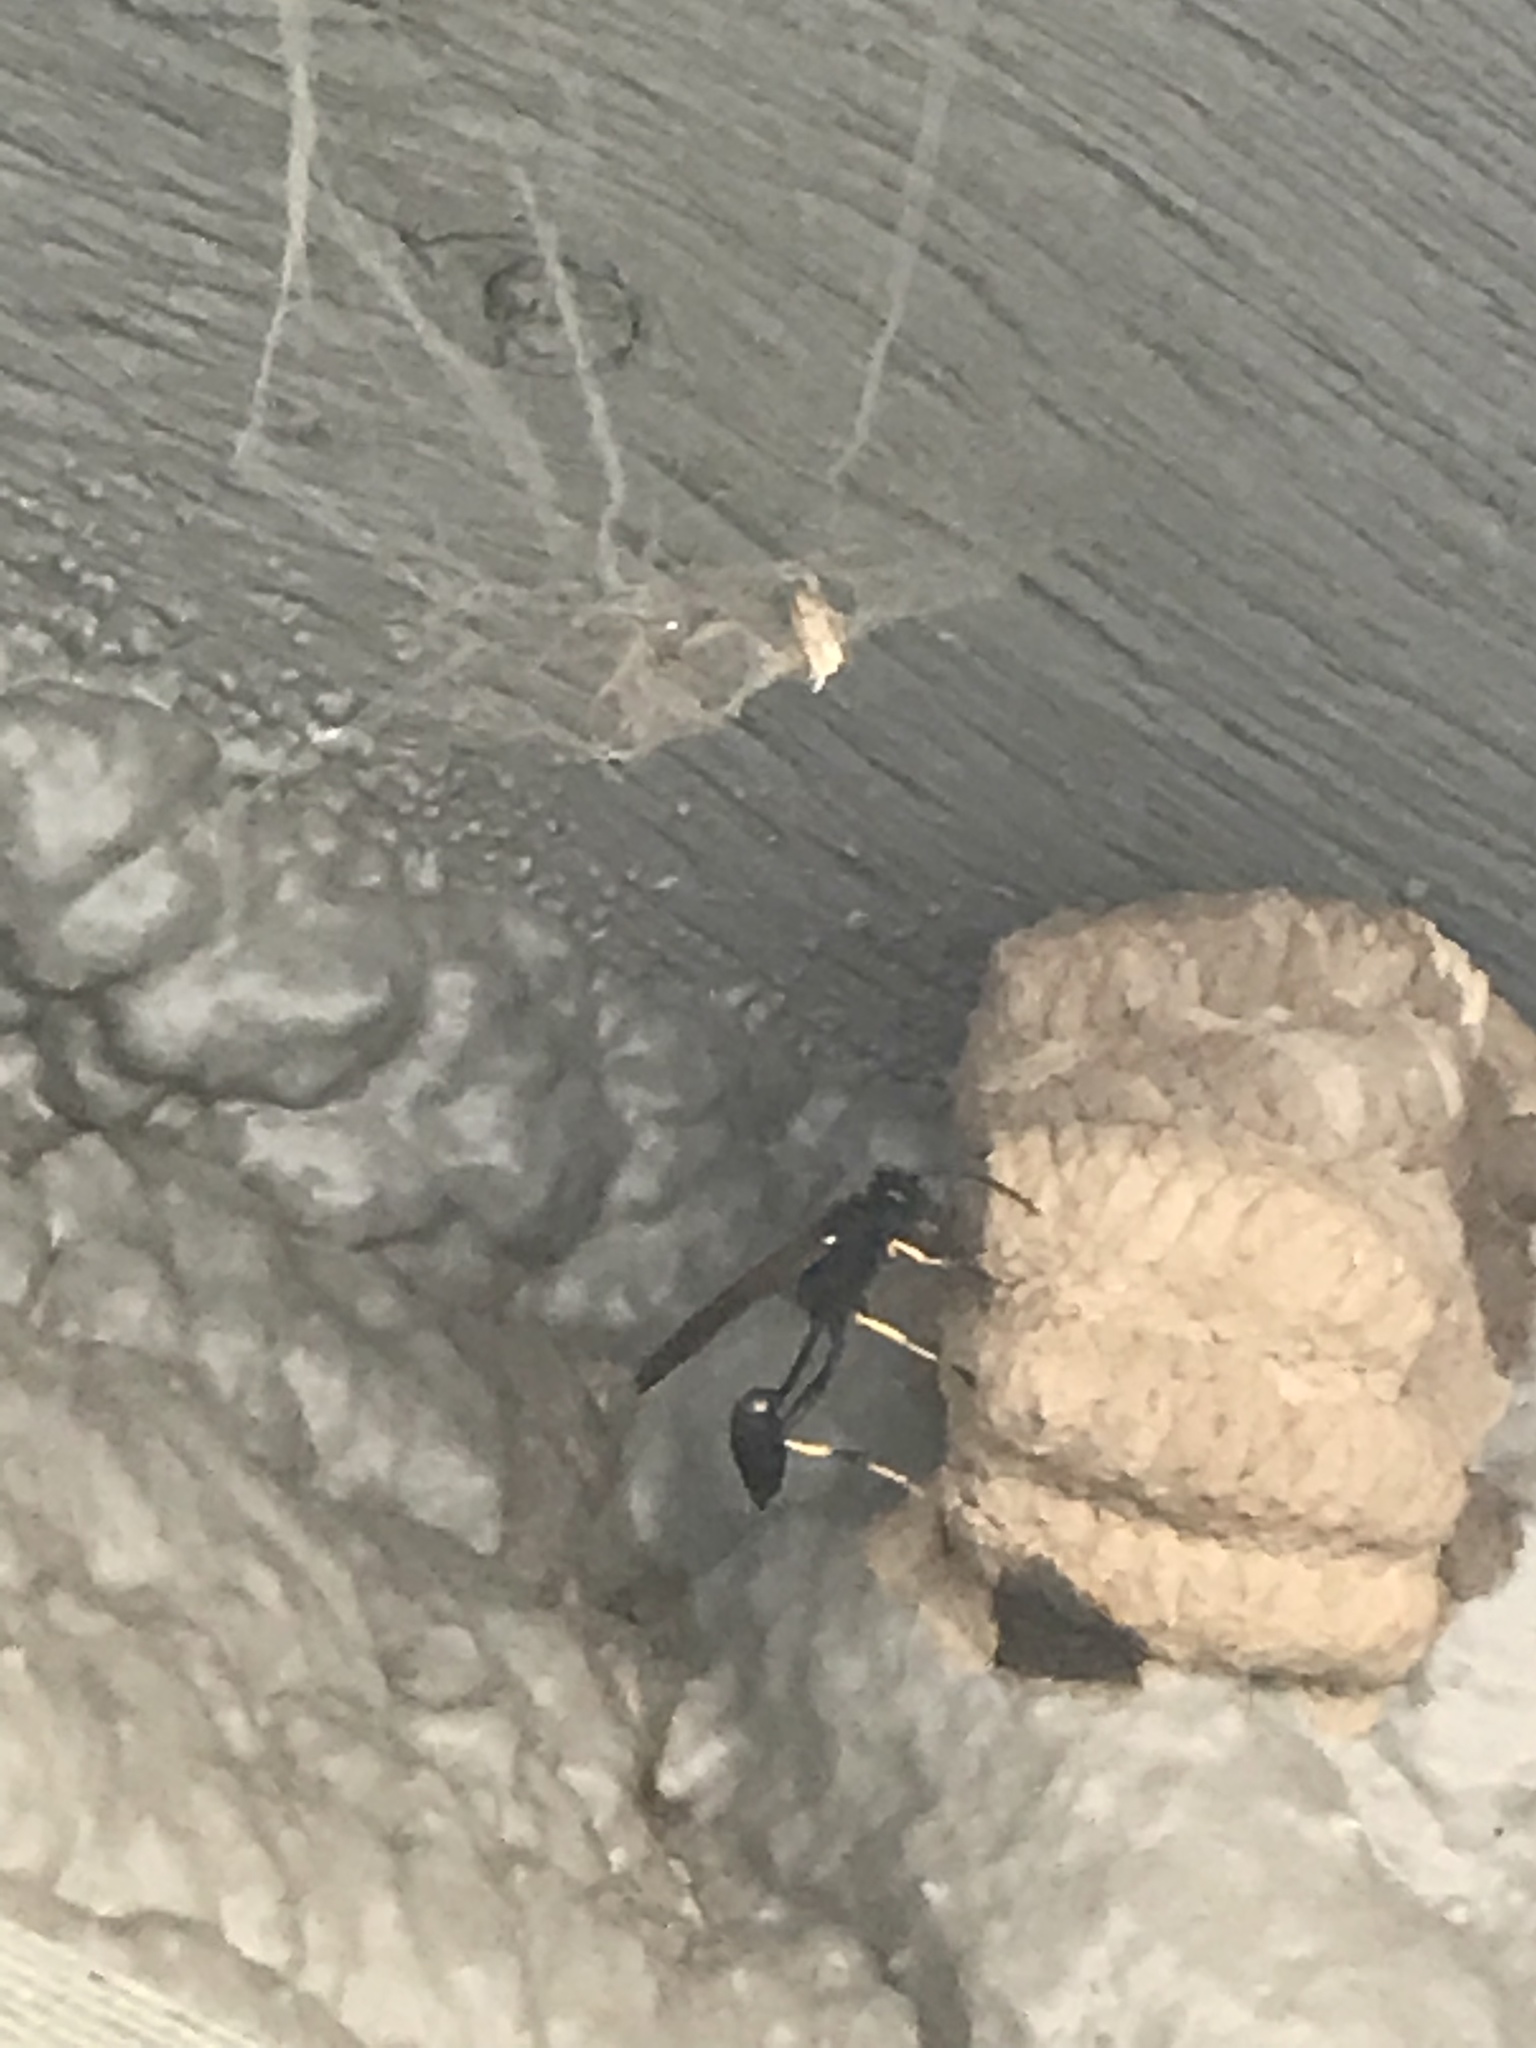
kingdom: Animalia
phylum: Arthropoda
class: Insecta
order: Hymenoptera
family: Sphecidae
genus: Sceliphron
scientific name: Sceliphron caementarium
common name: Mud dauber
